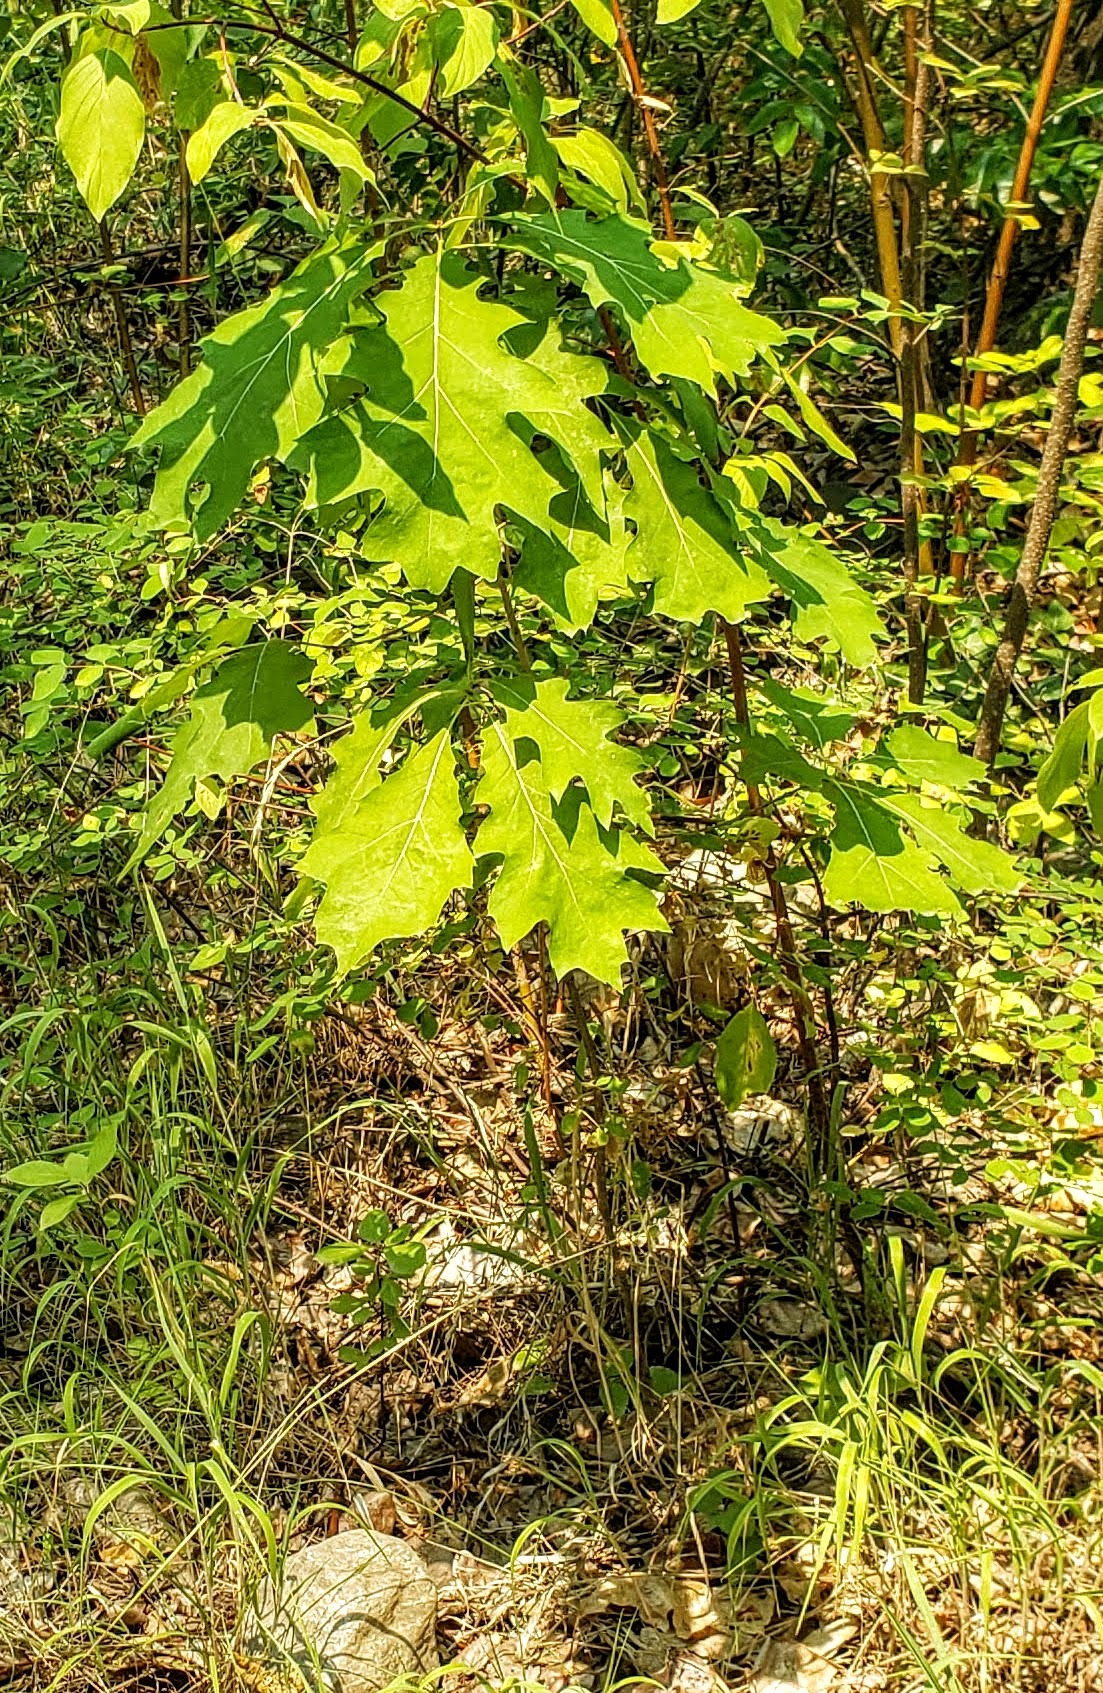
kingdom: Plantae
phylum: Tracheophyta
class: Magnoliopsida
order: Fagales
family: Fagaceae
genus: Quercus
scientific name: Quercus rubra
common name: Red oak
